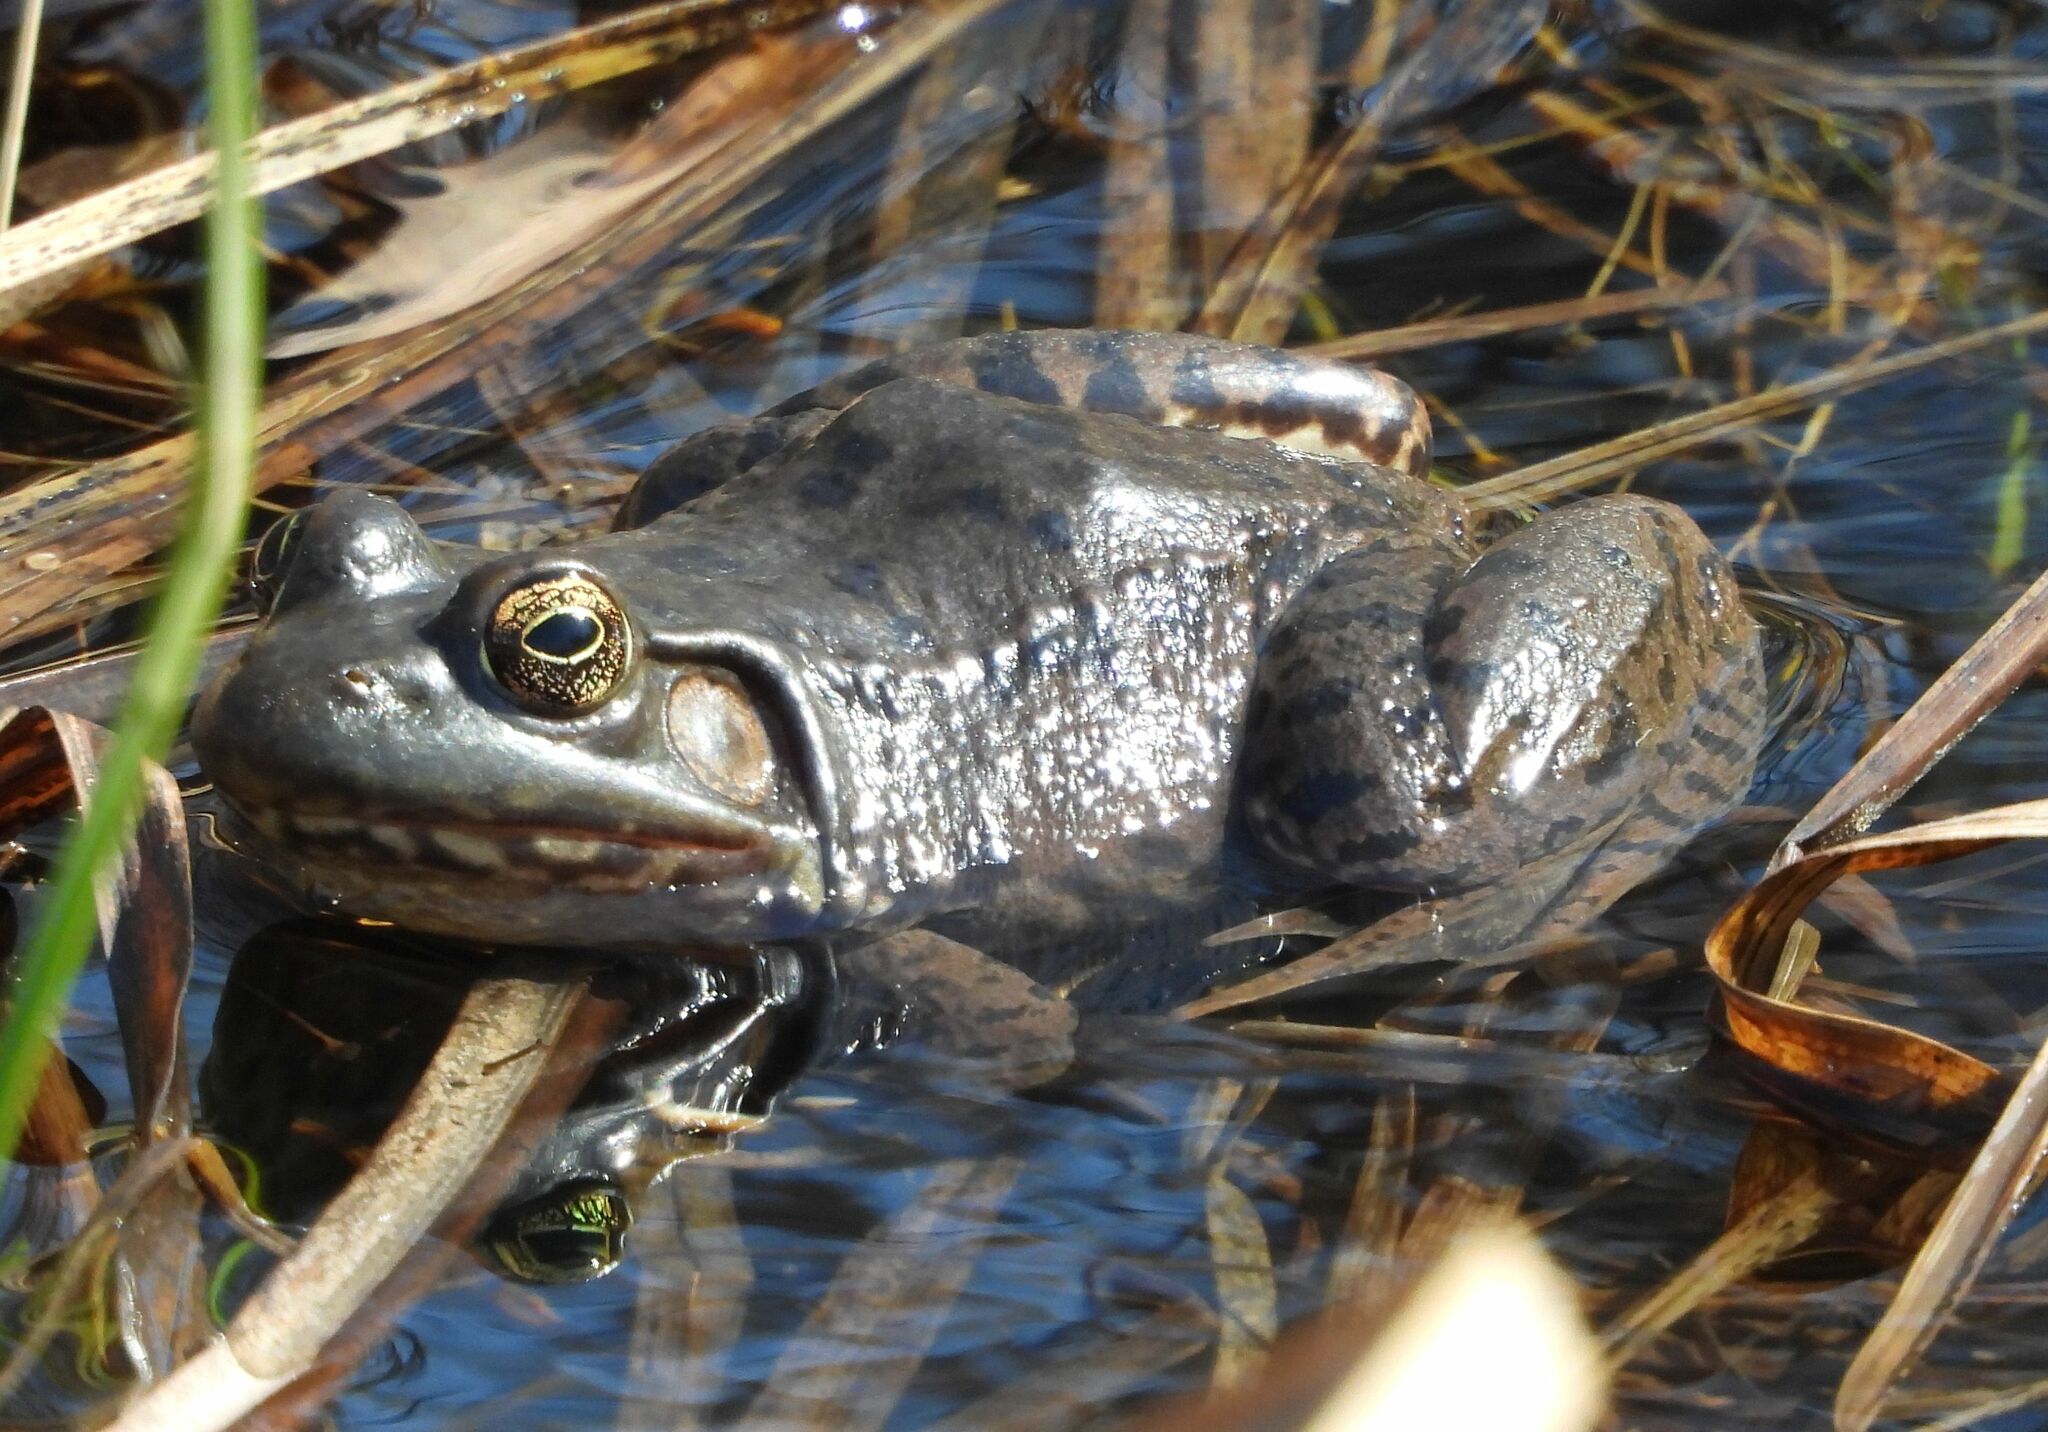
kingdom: Animalia
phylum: Chordata
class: Amphibia
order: Anura
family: Ranidae
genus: Lithobates
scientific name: Lithobates catesbeianus
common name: American bullfrog
